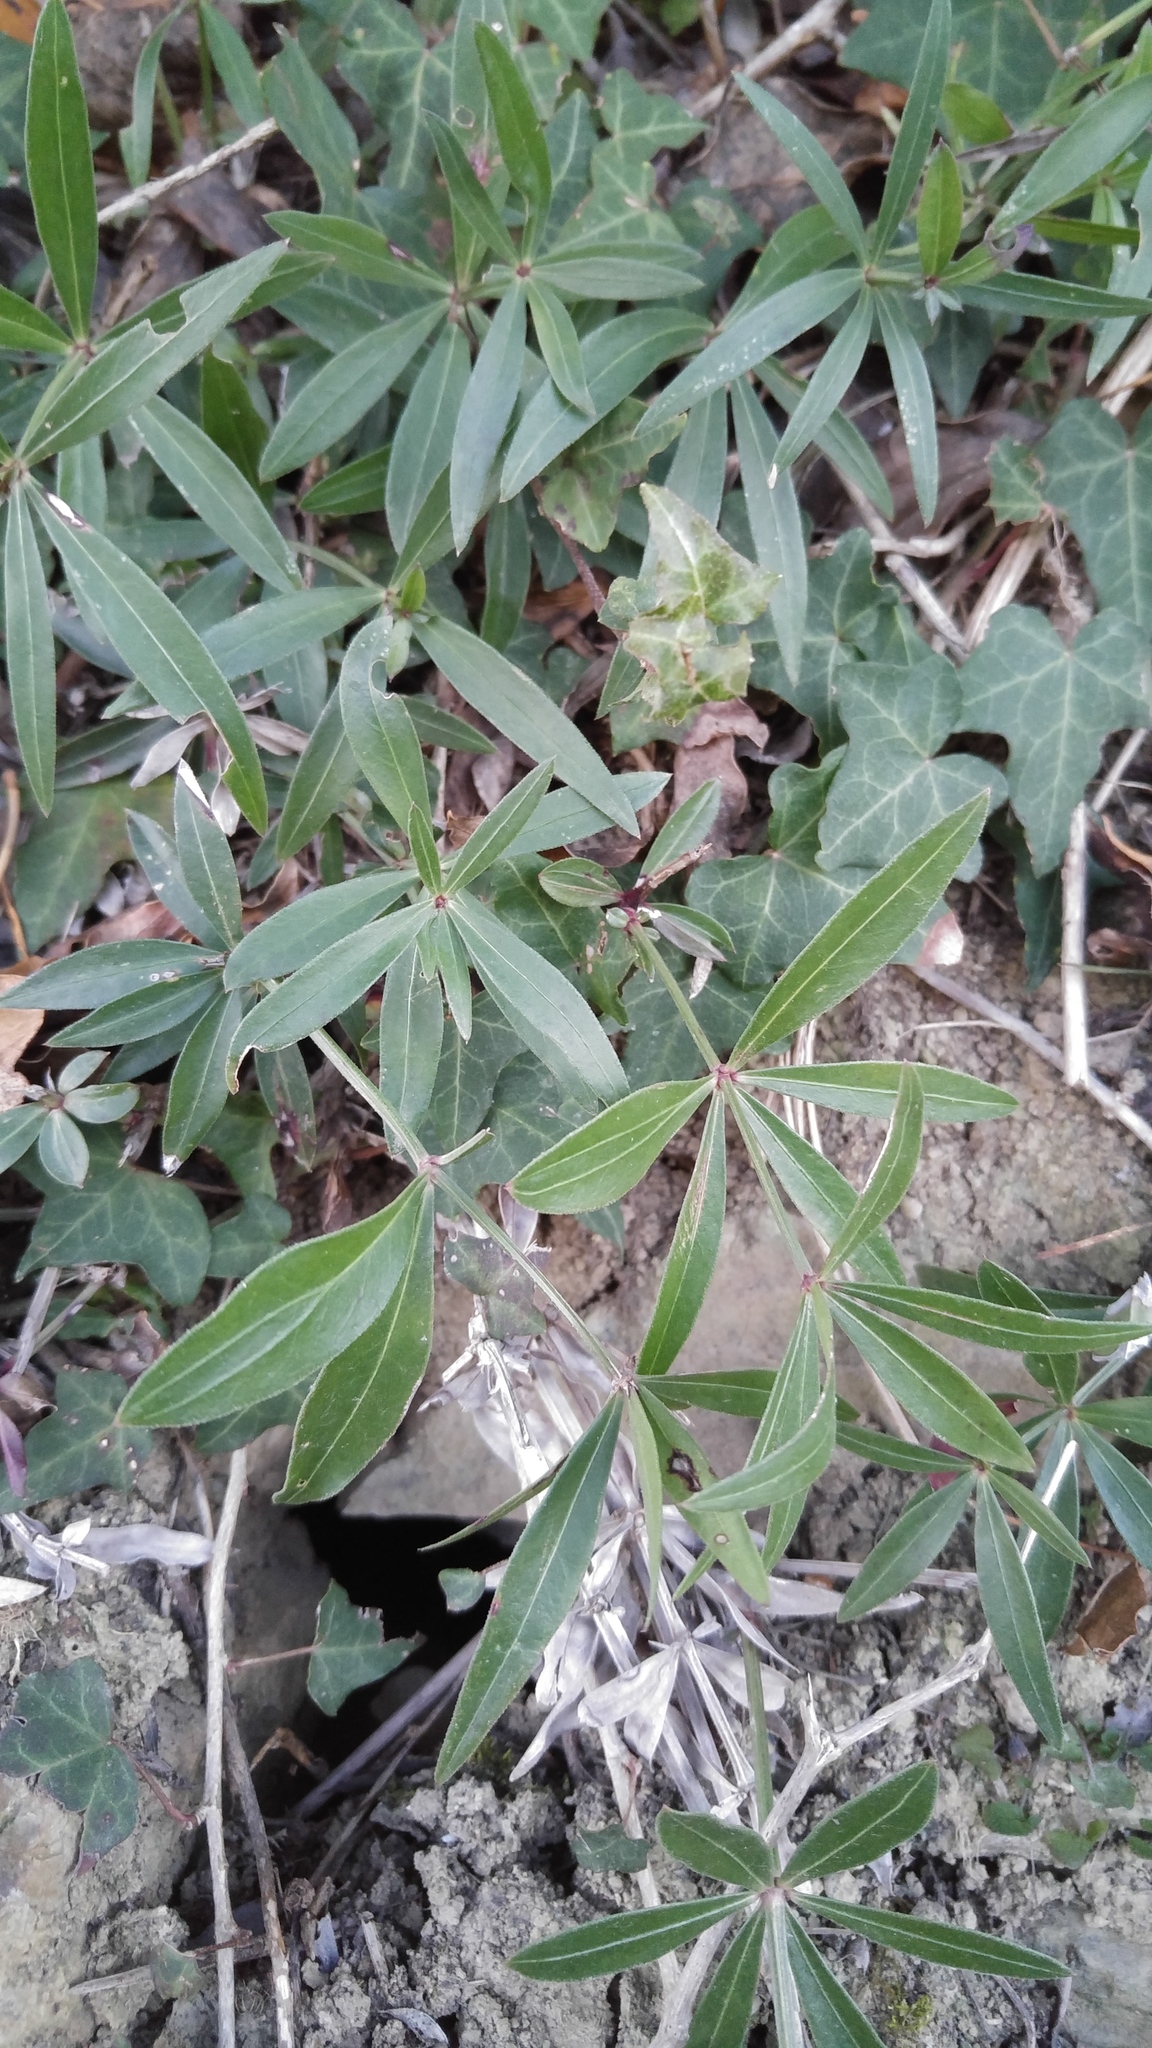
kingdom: Plantae
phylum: Tracheophyta
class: Magnoliopsida
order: Gentianales
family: Rubiaceae
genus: Rubia
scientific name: Rubia peregrina
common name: Wild madder
